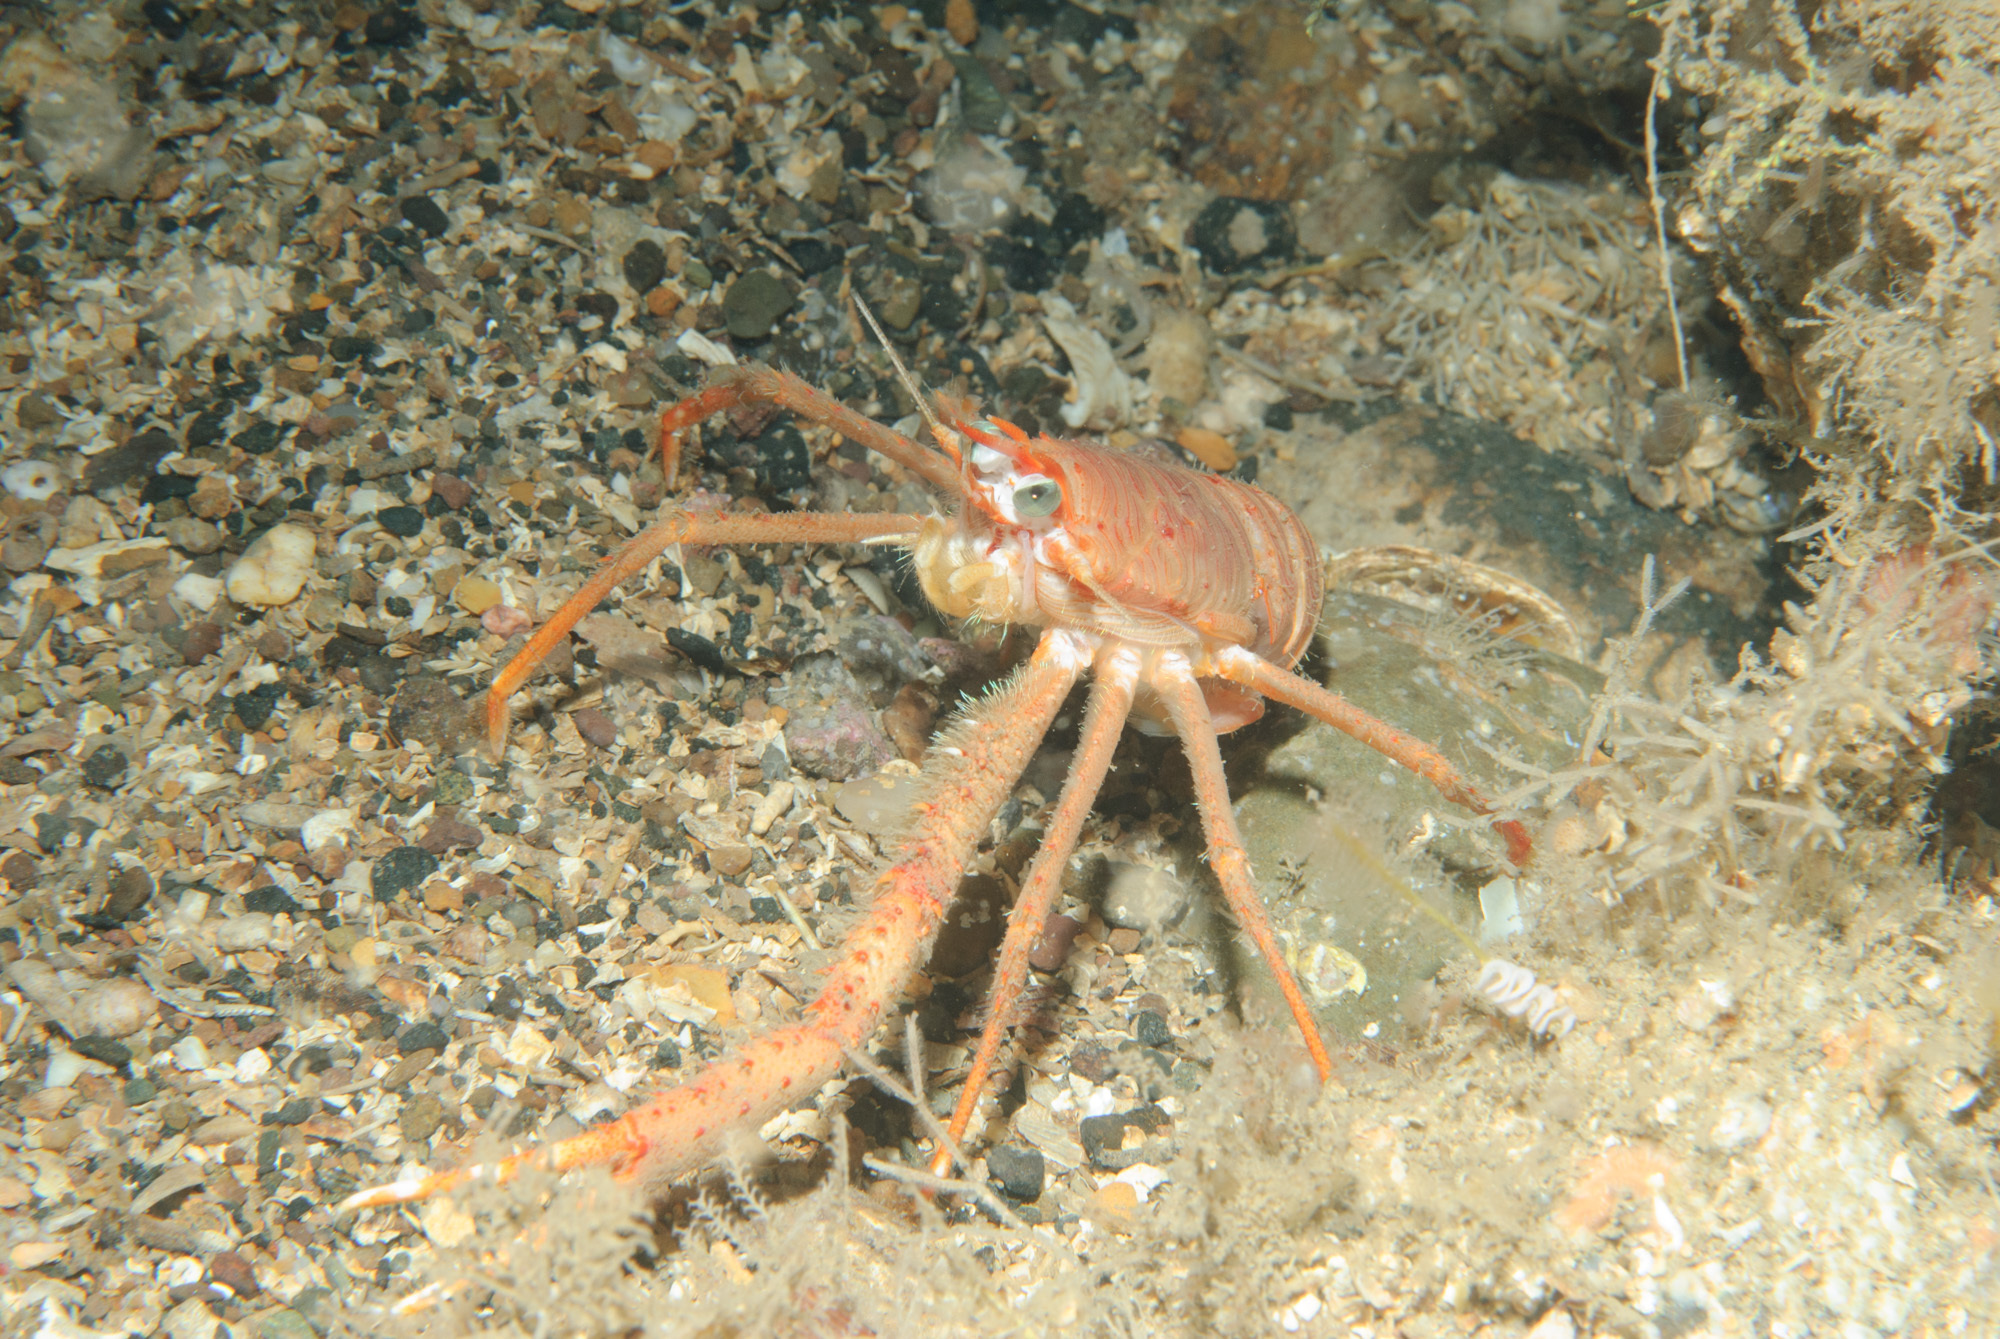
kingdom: Animalia
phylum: Arthropoda
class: Malacostraca
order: Decapoda
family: Munididae
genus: Munida
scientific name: Munida rugosa
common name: Rugose squat lobster
